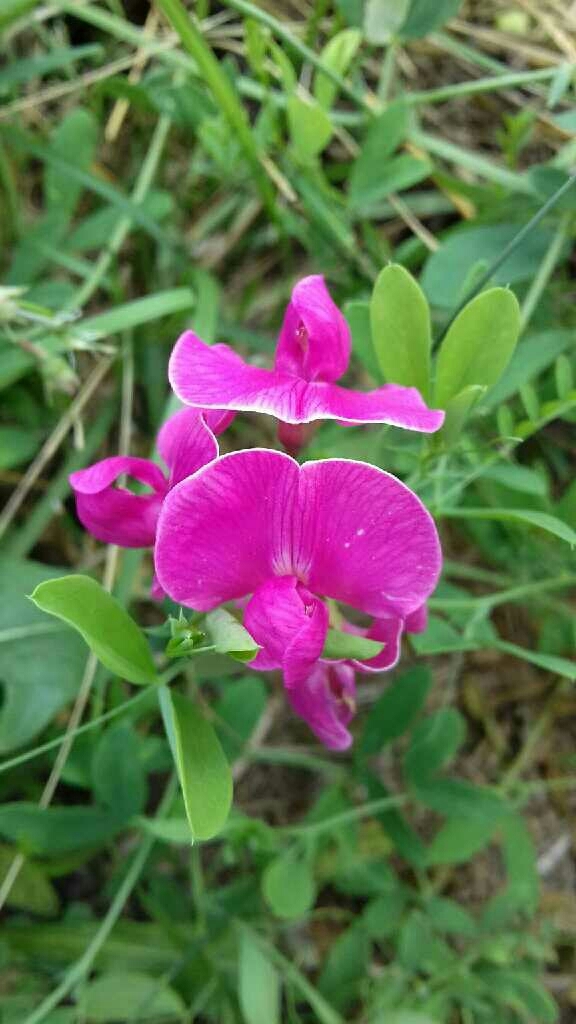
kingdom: Plantae
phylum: Tracheophyta
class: Magnoliopsida
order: Fabales
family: Fabaceae
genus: Lathyrus
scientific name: Lathyrus tuberosus
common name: Tuberous pea
